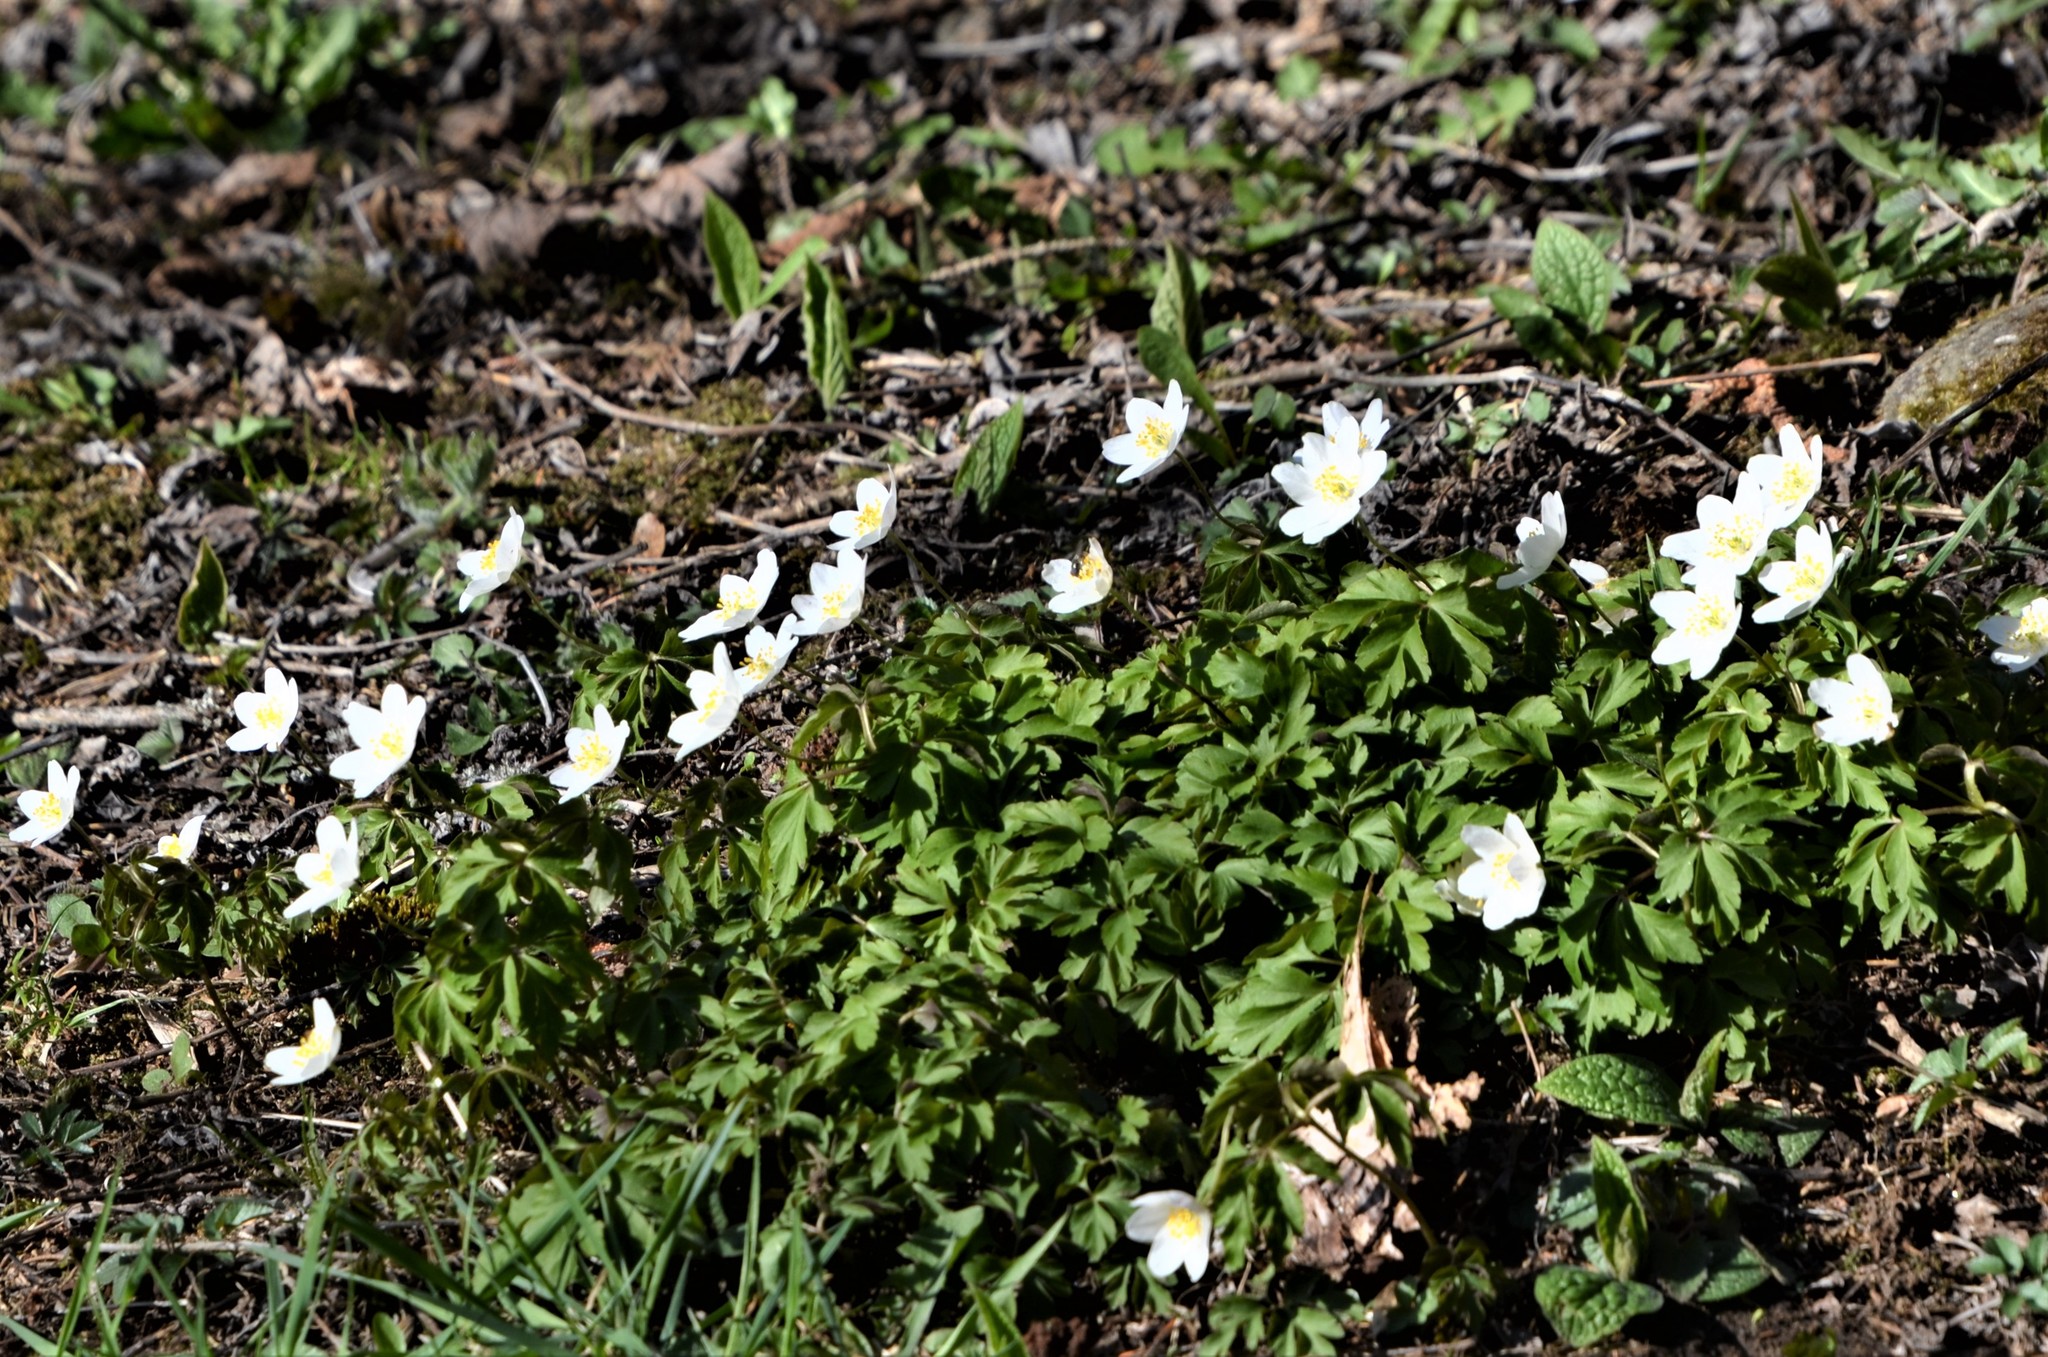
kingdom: Plantae
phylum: Tracheophyta
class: Magnoliopsida
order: Ranunculales
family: Ranunculaceae
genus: Anemone
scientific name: Anemone nemorosa
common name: Wood anemone
